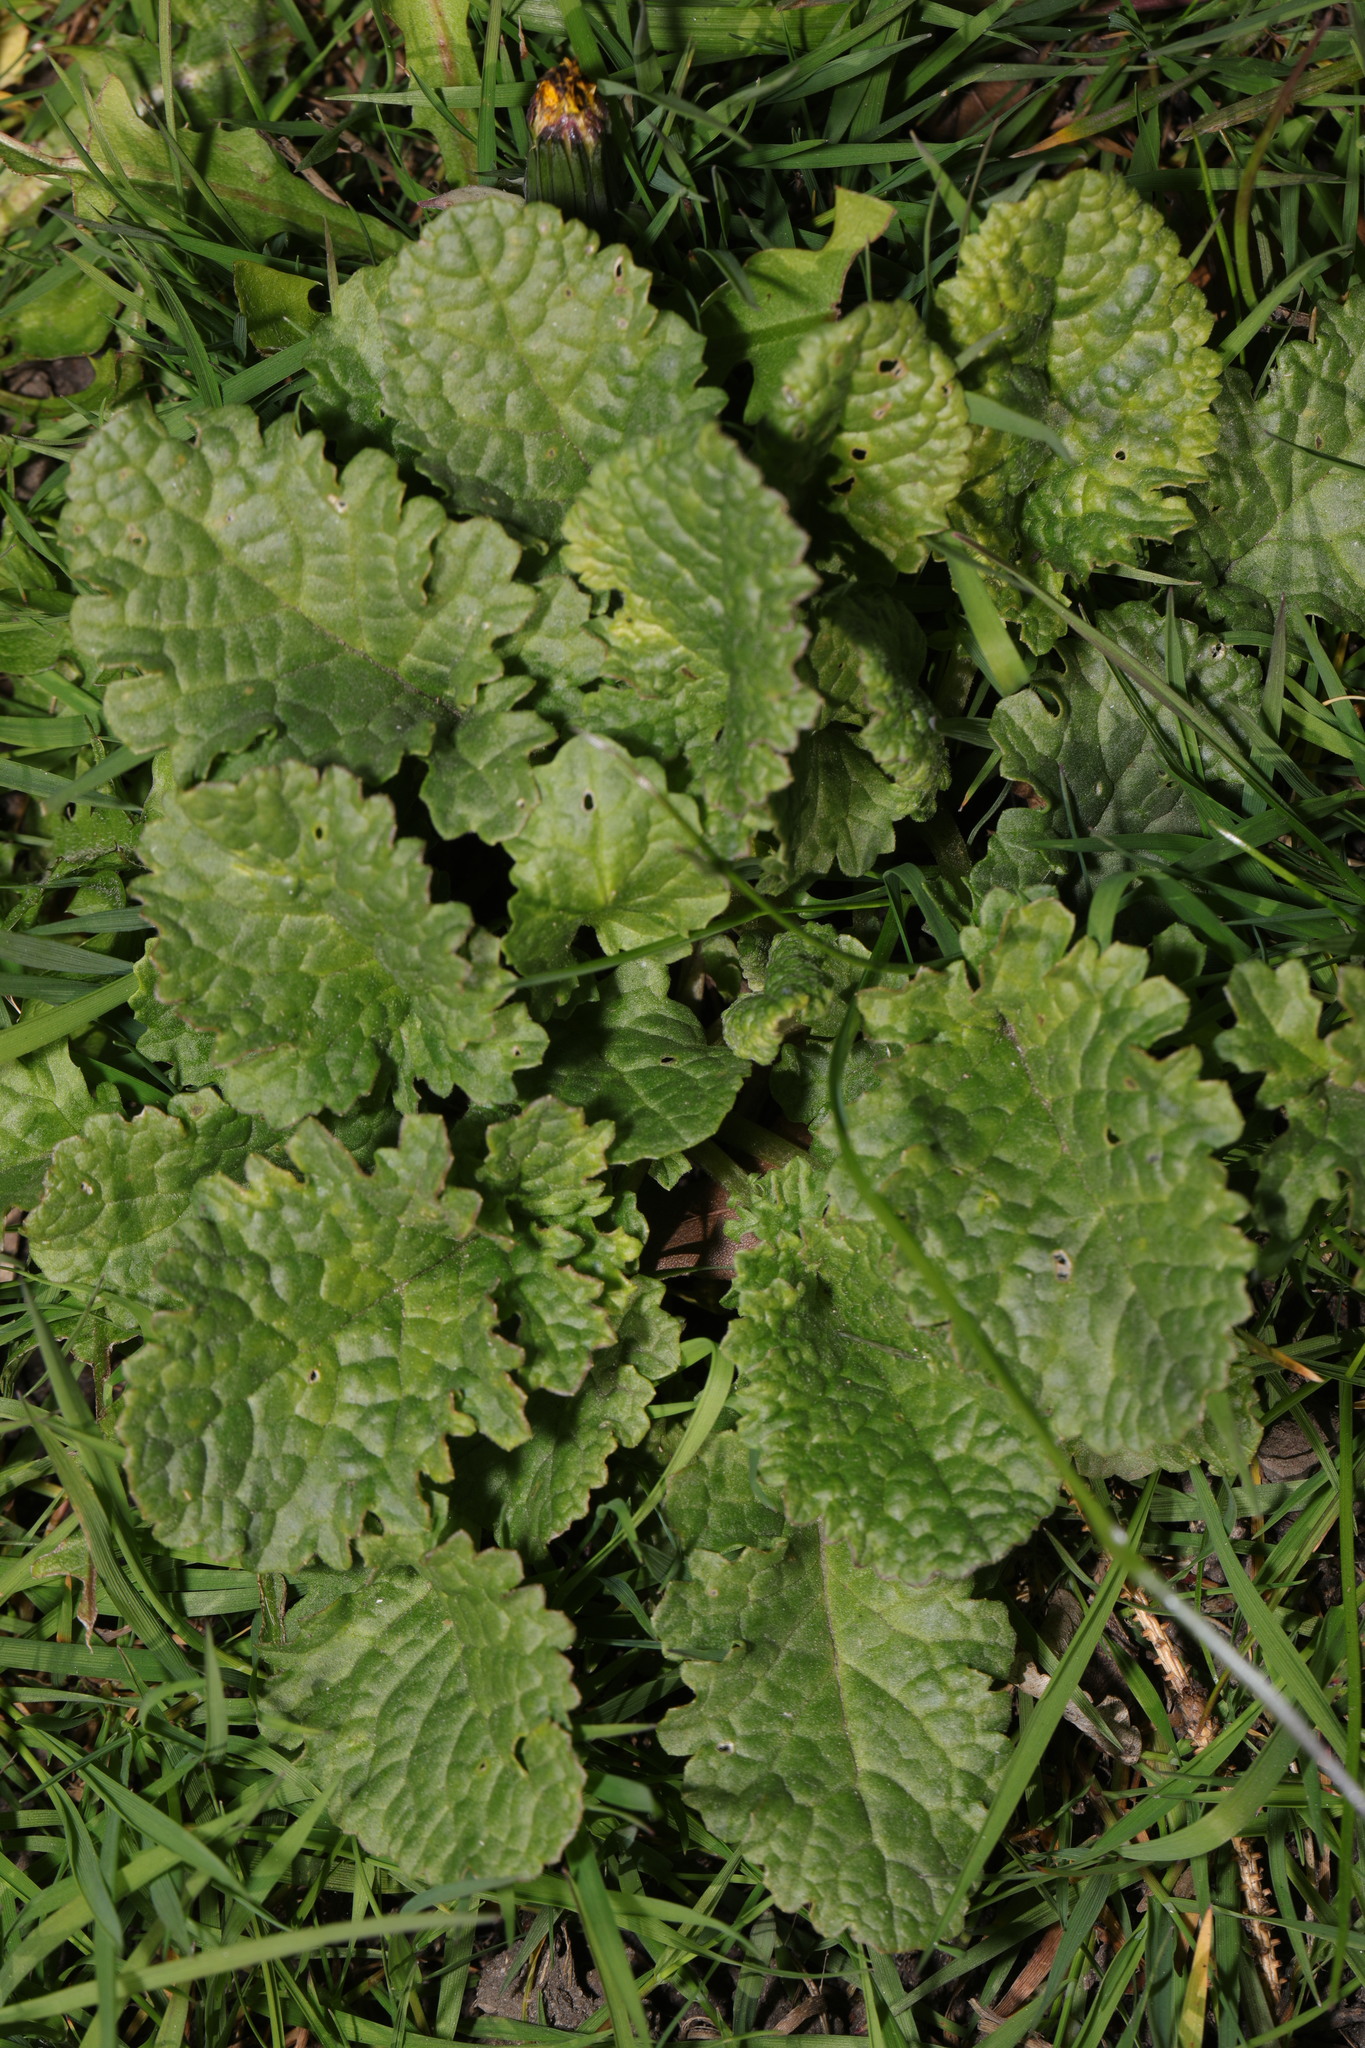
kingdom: Plantae
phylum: Tracheophyta
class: Magnoliopsida
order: Asterales
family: Asteraceae
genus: Jacobaea
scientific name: Jacobaea vulgaris
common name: Stinking willie
